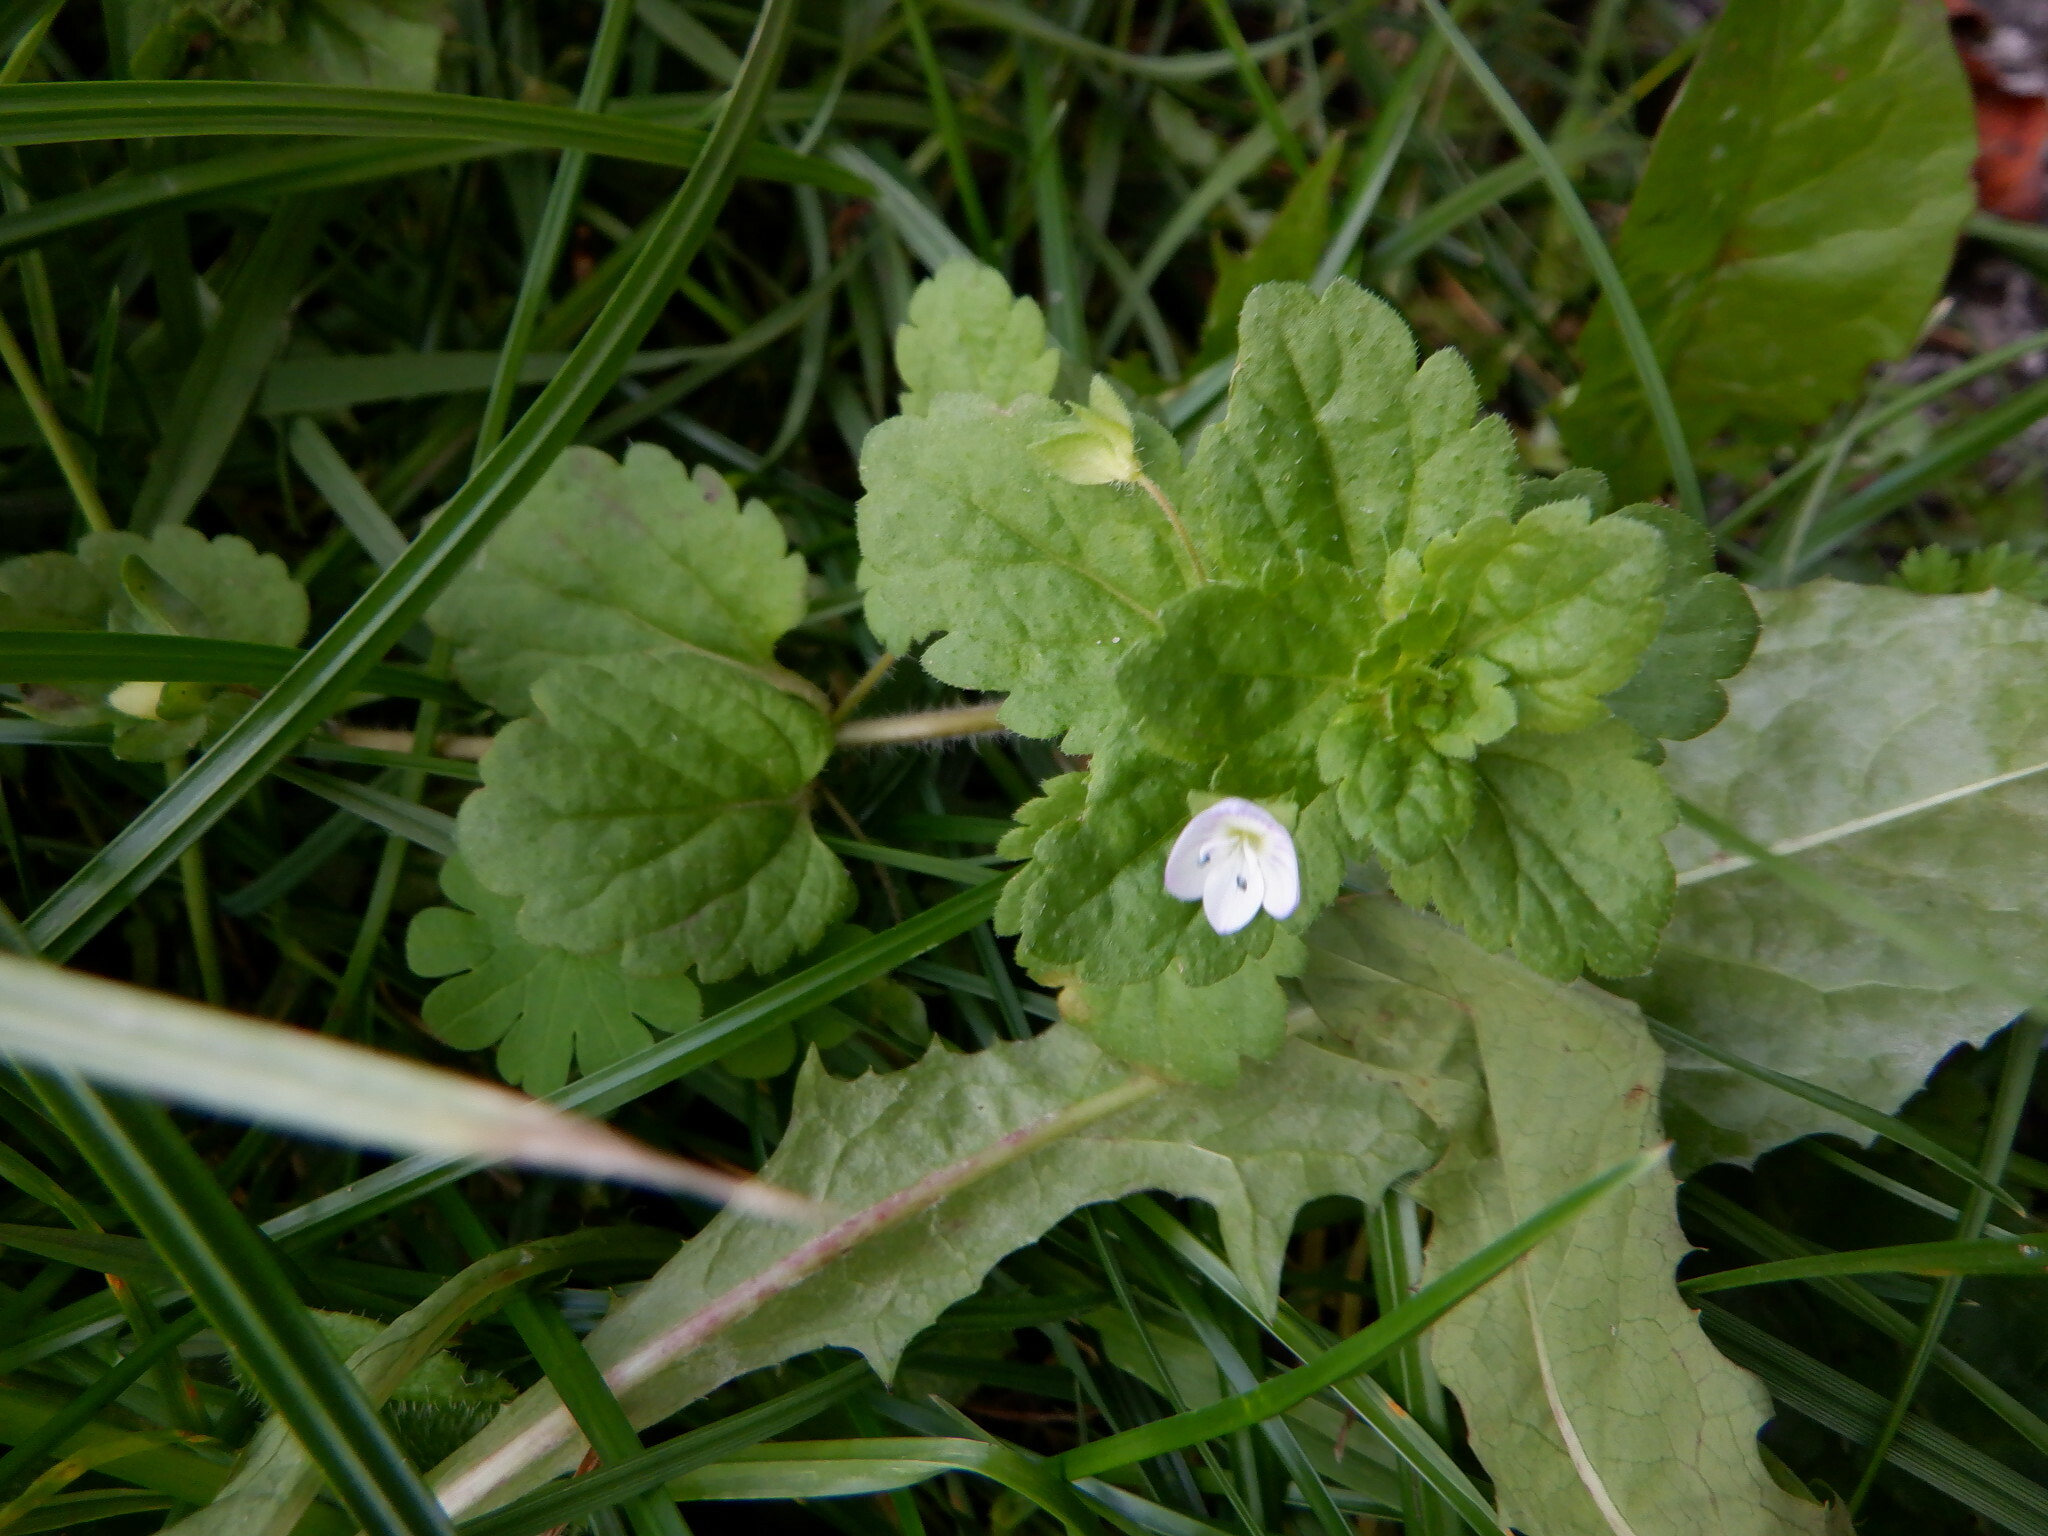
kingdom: Plantae
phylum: Tracheophyta
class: Magnoliopsida
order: Lamiales
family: Plantaginaceae
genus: Veronica
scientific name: Veronica persica
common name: Common field-speedwell
